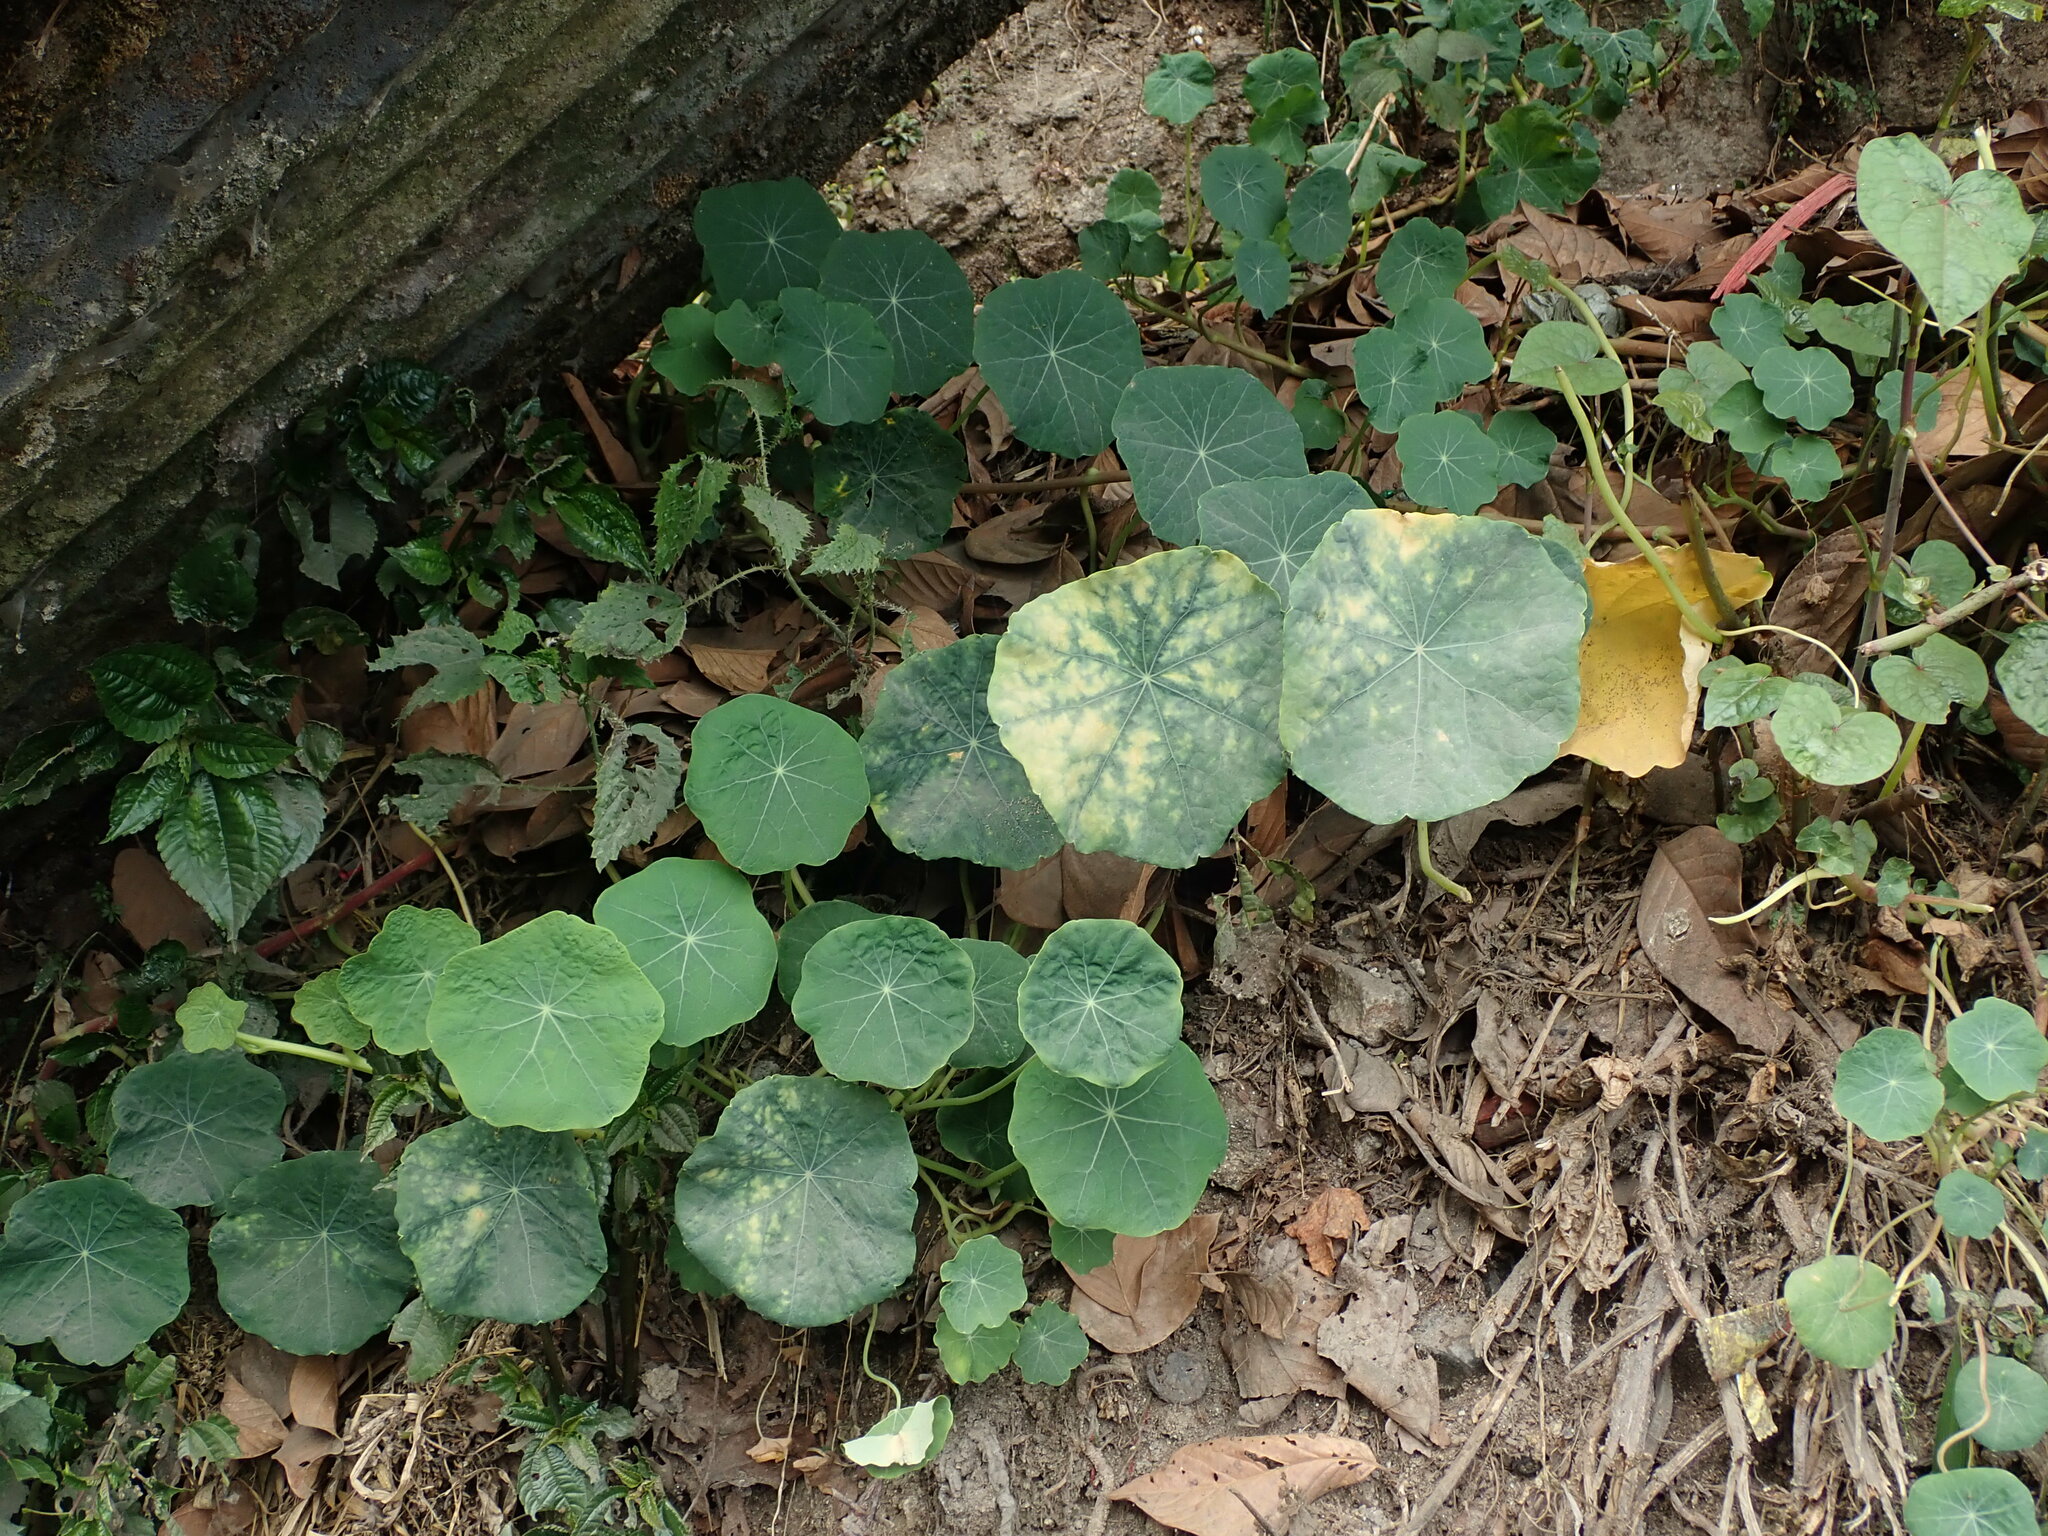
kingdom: Plantae
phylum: Tracheophyta
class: Magnoliopsida
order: Brassicales
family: Tropaeolaceae
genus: Tropaeolum
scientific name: Tropaeolum majus
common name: Nasturtium
